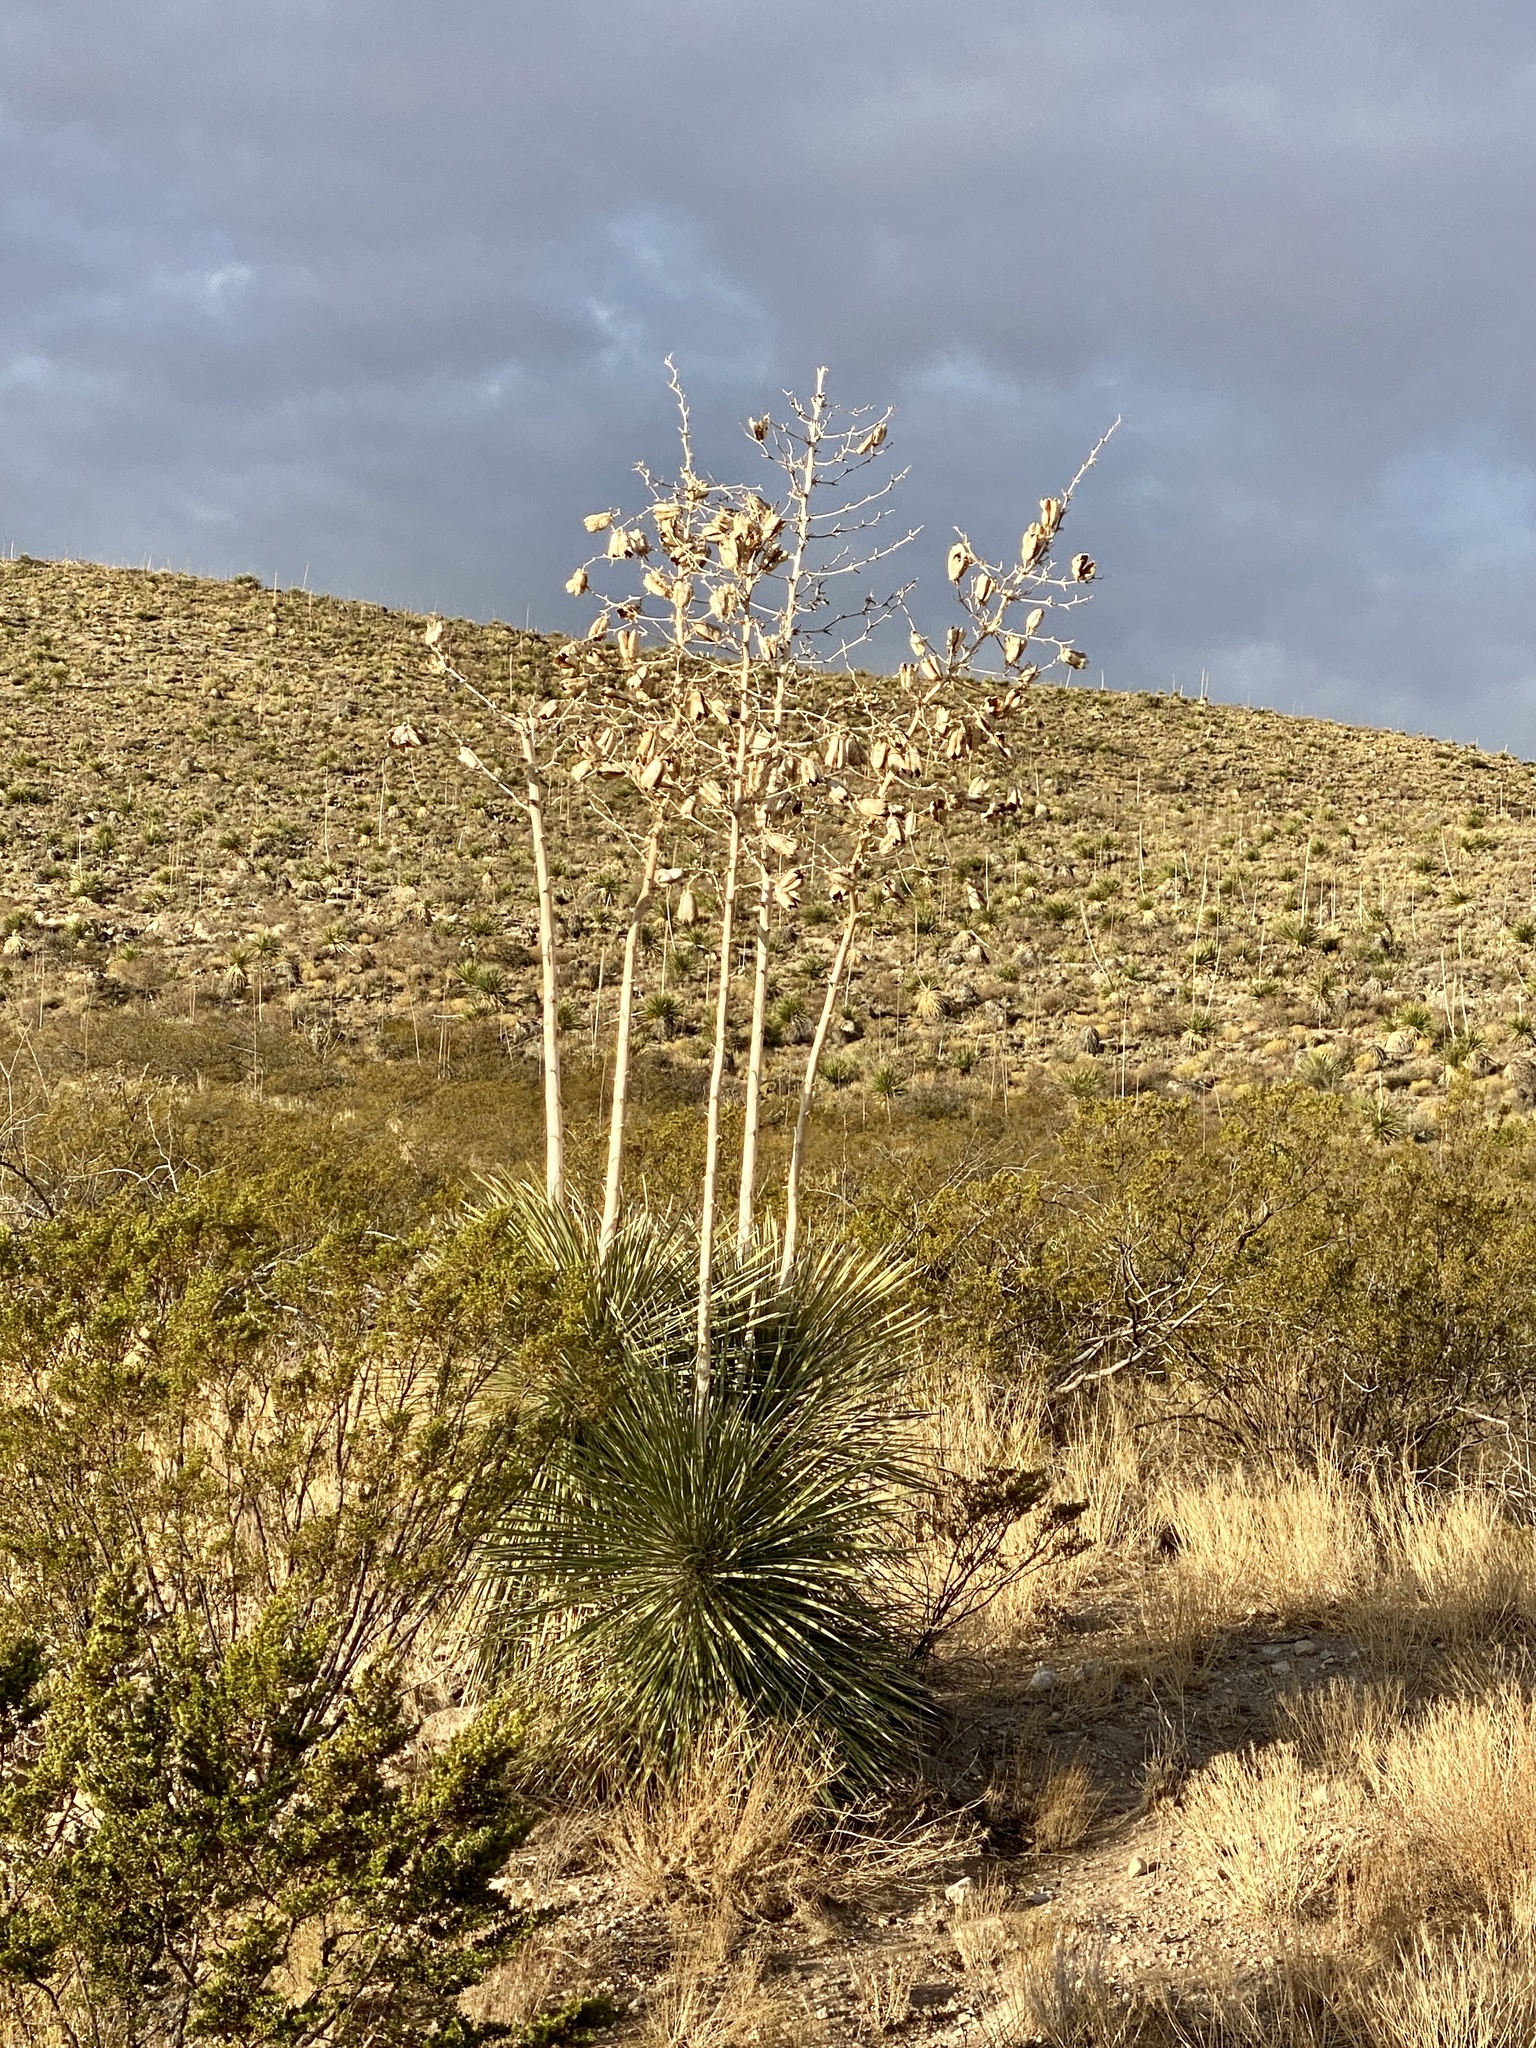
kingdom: Plantae
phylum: Tracheophyta
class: Liliopsida
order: Asparagales
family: Asparagaceae
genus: Yucca
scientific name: Yucca elata
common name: Palmella
